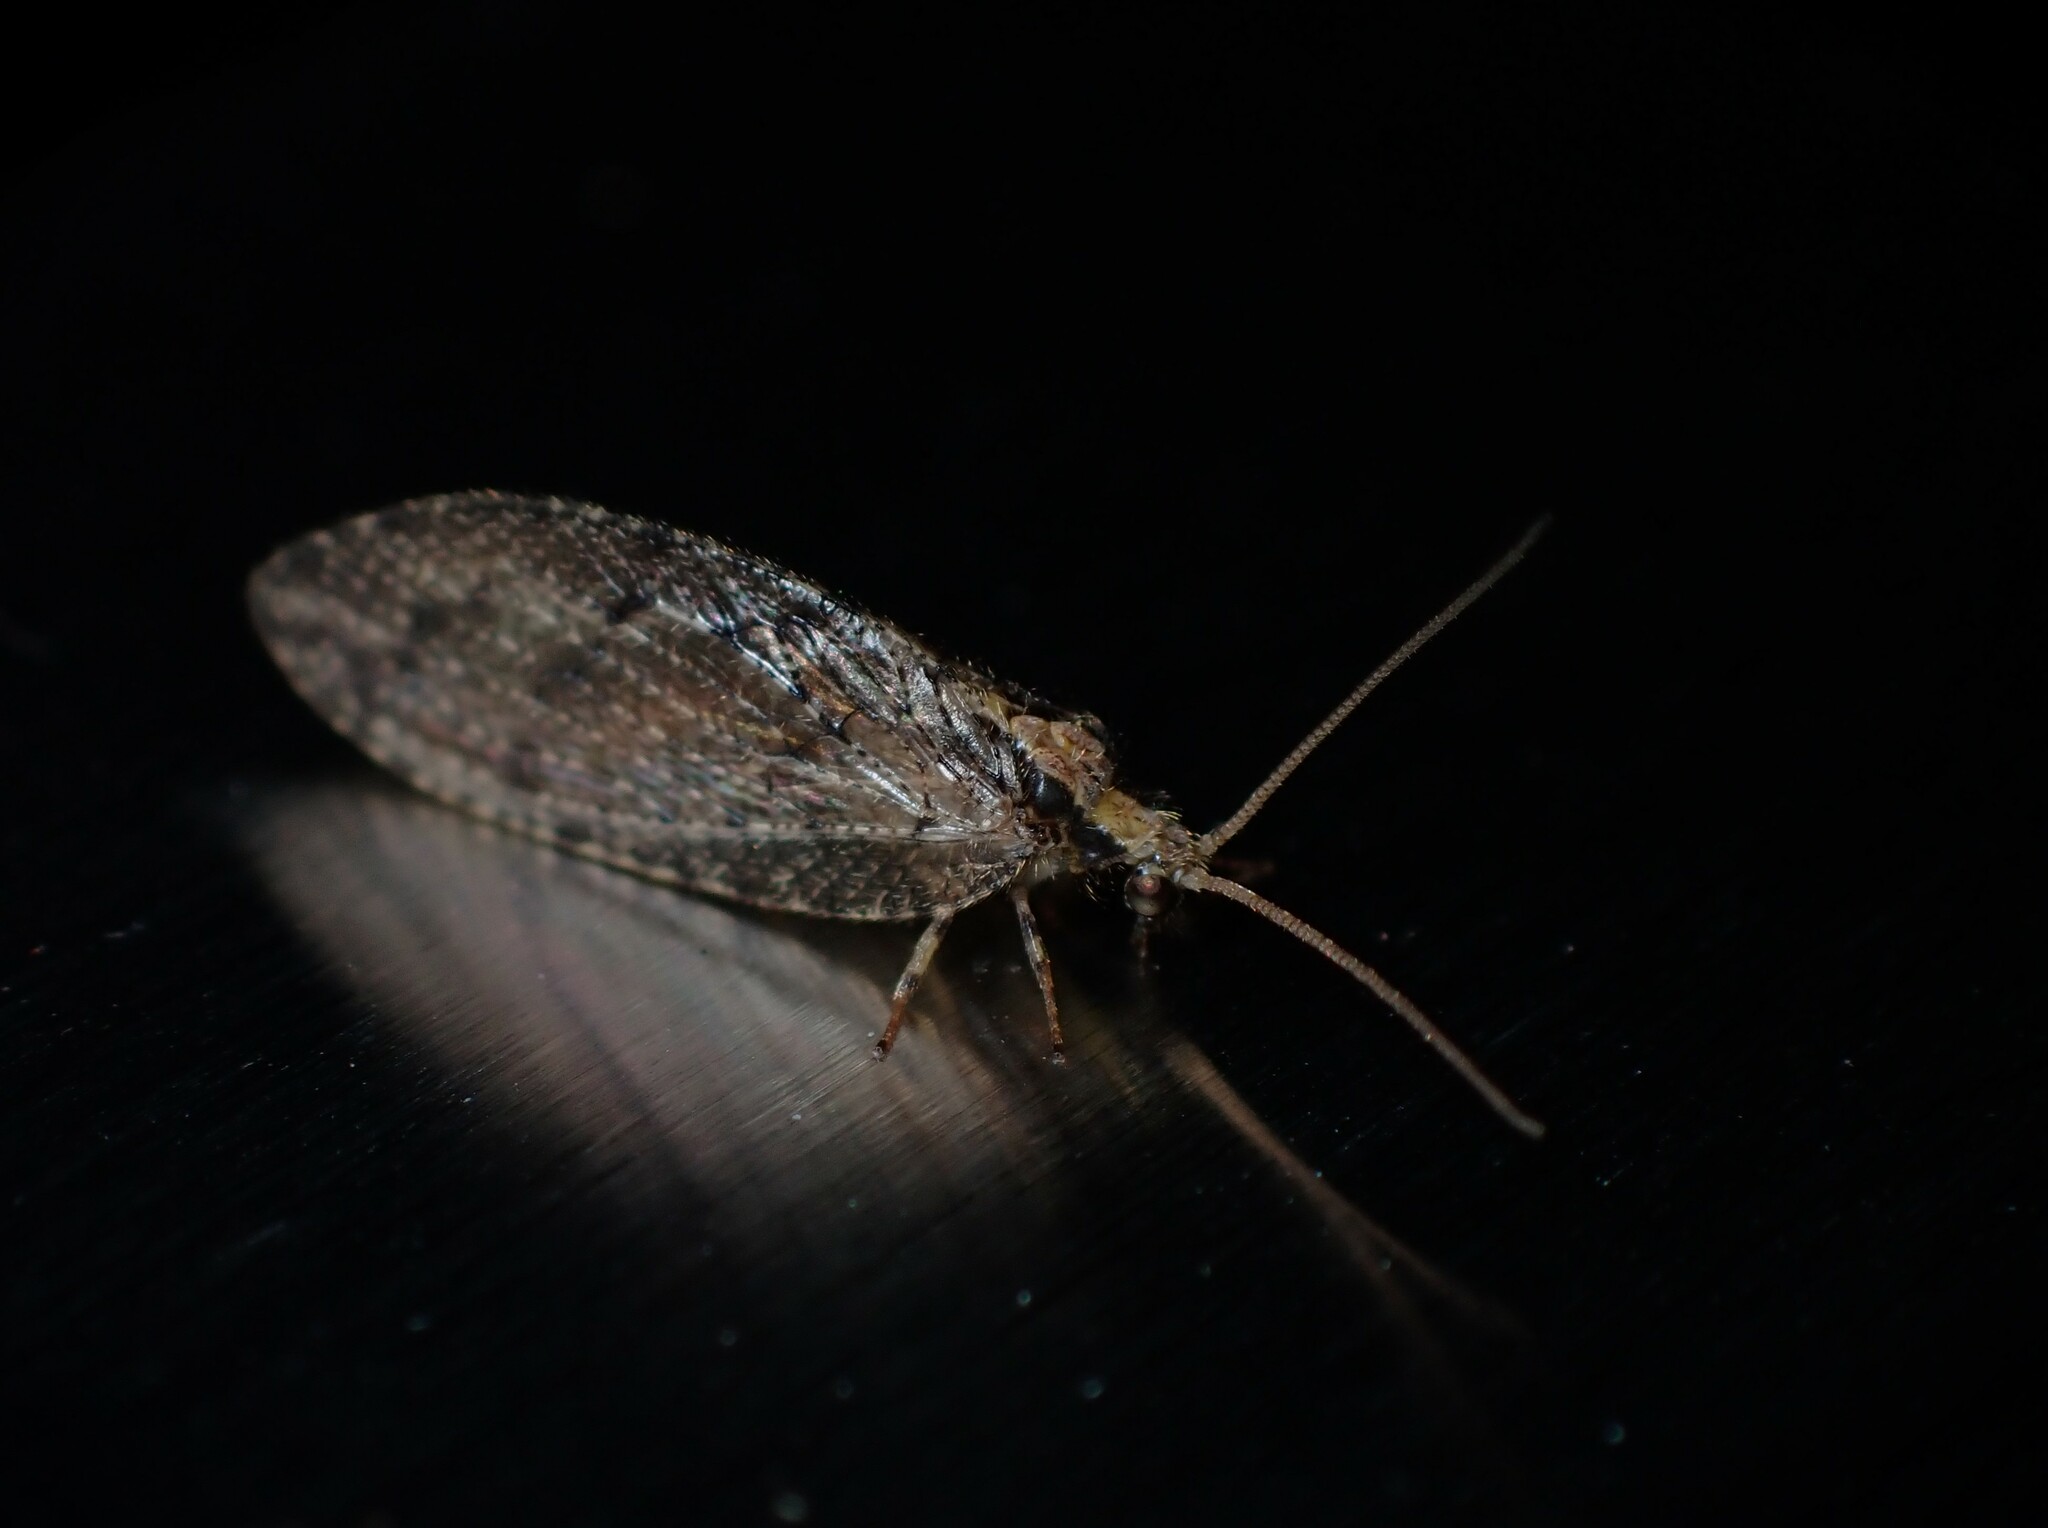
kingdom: Animalia
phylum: Arthropoda
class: Insecta
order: Neuroptera
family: Hemerobiidae
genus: Wesmaelius
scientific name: Wesmaelius subnebulosus
